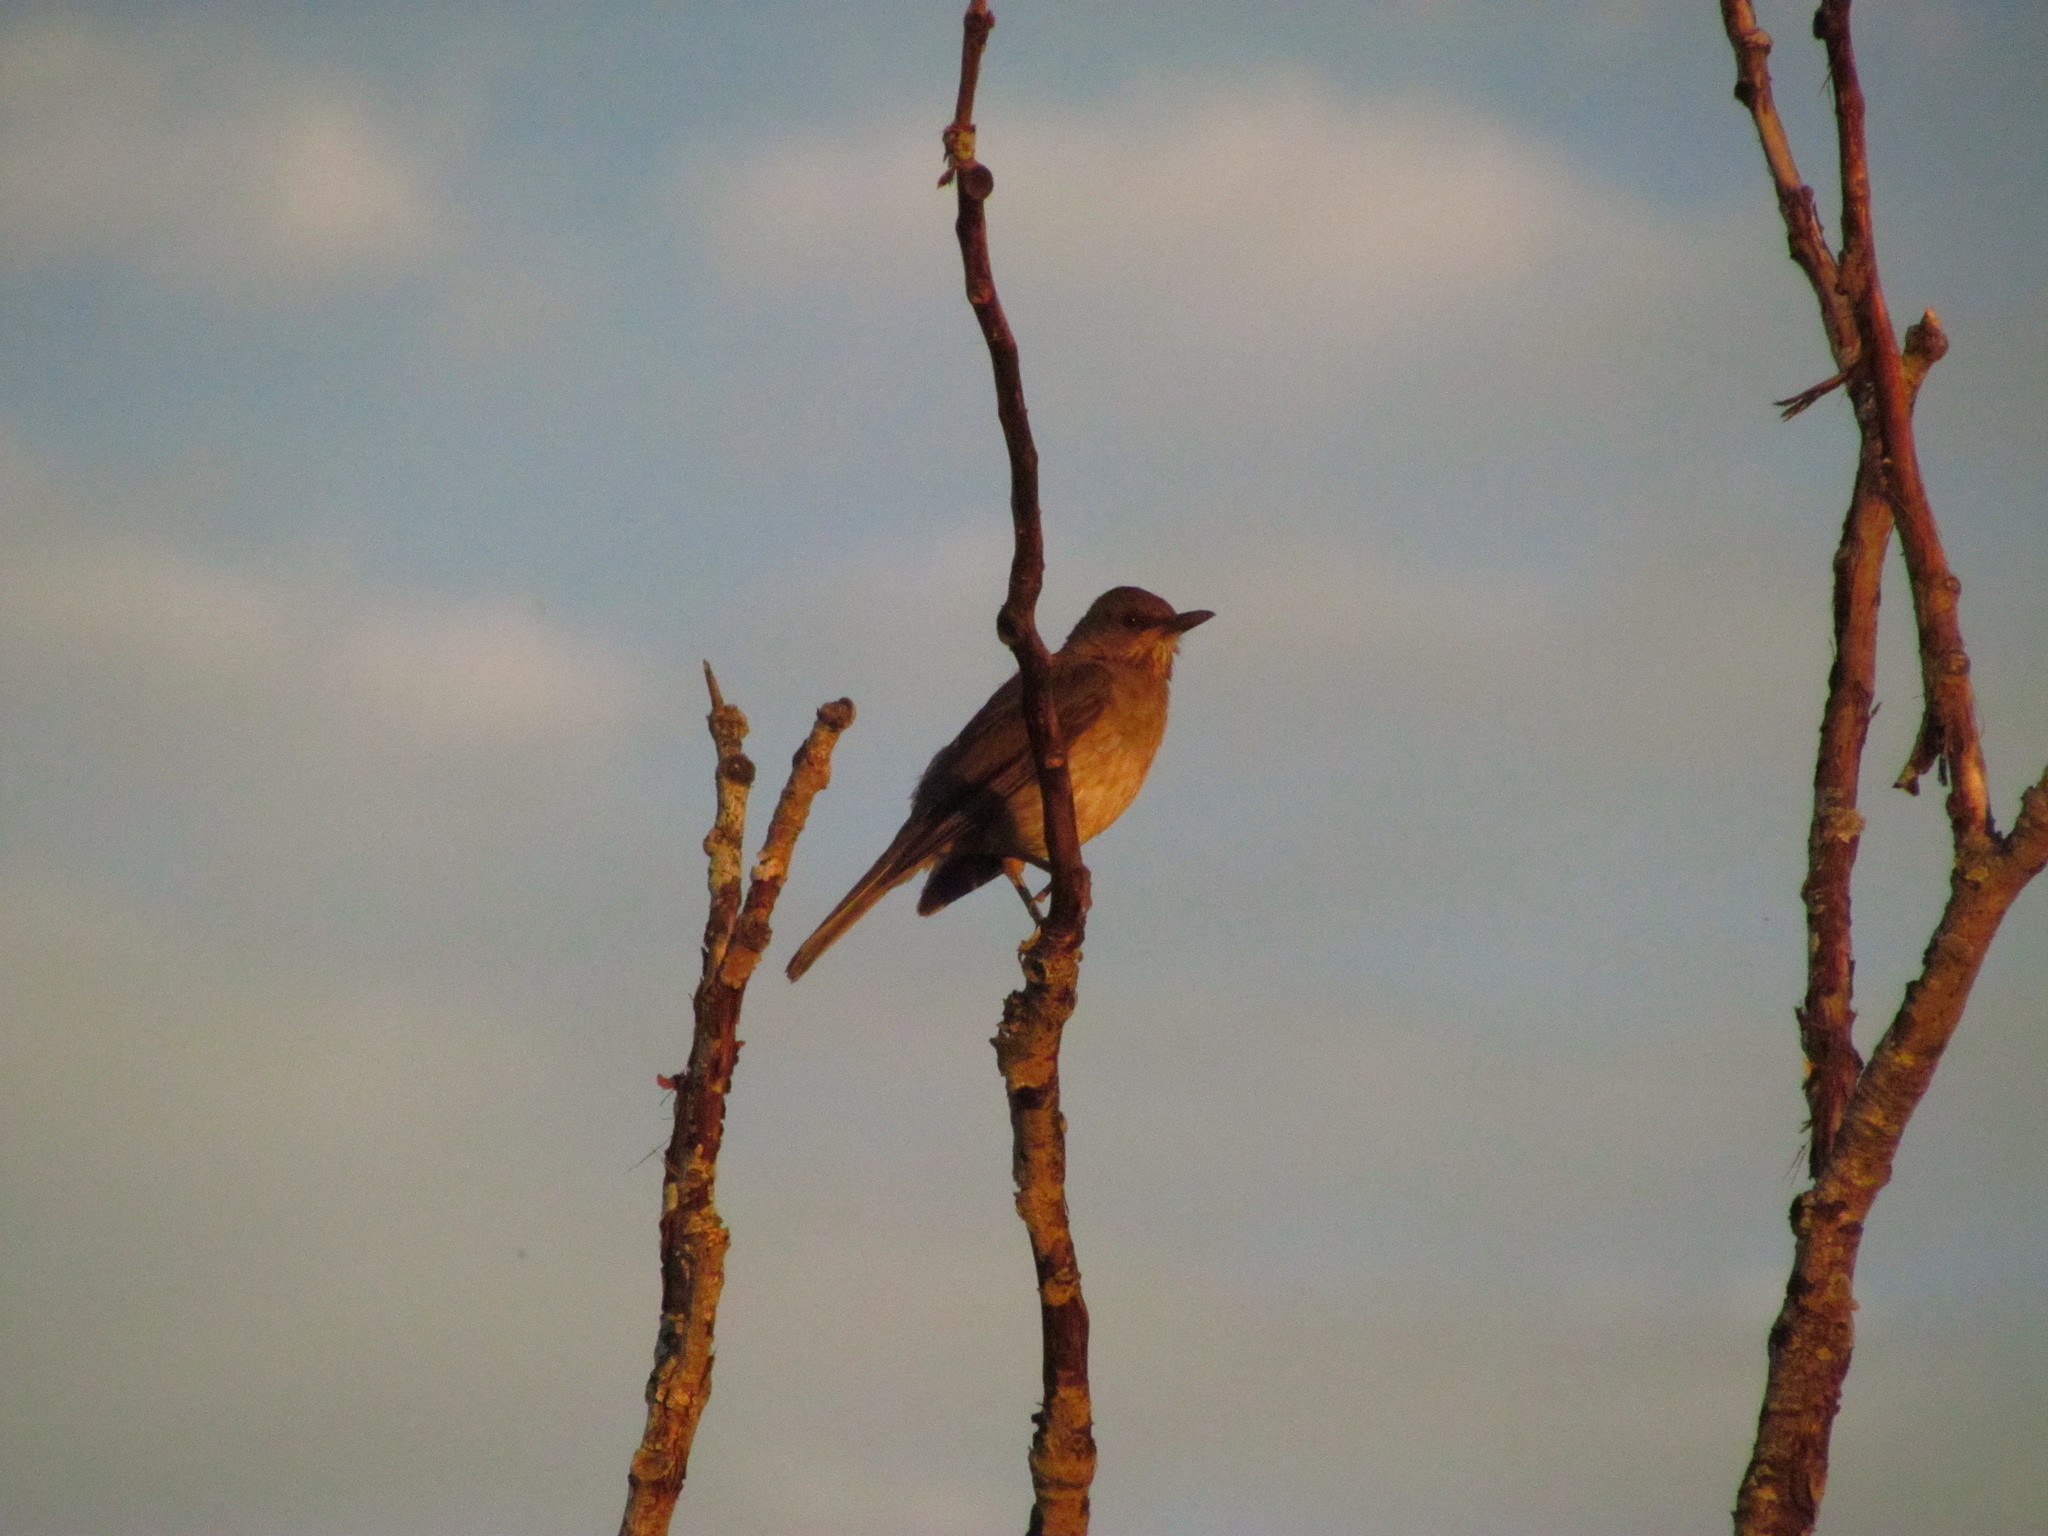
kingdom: Animalia
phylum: Chordata
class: Aves
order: Passeriformes
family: Turdidae
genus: Turdus
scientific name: Turdus amaurochalinus
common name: Creamy-bellied thrush
